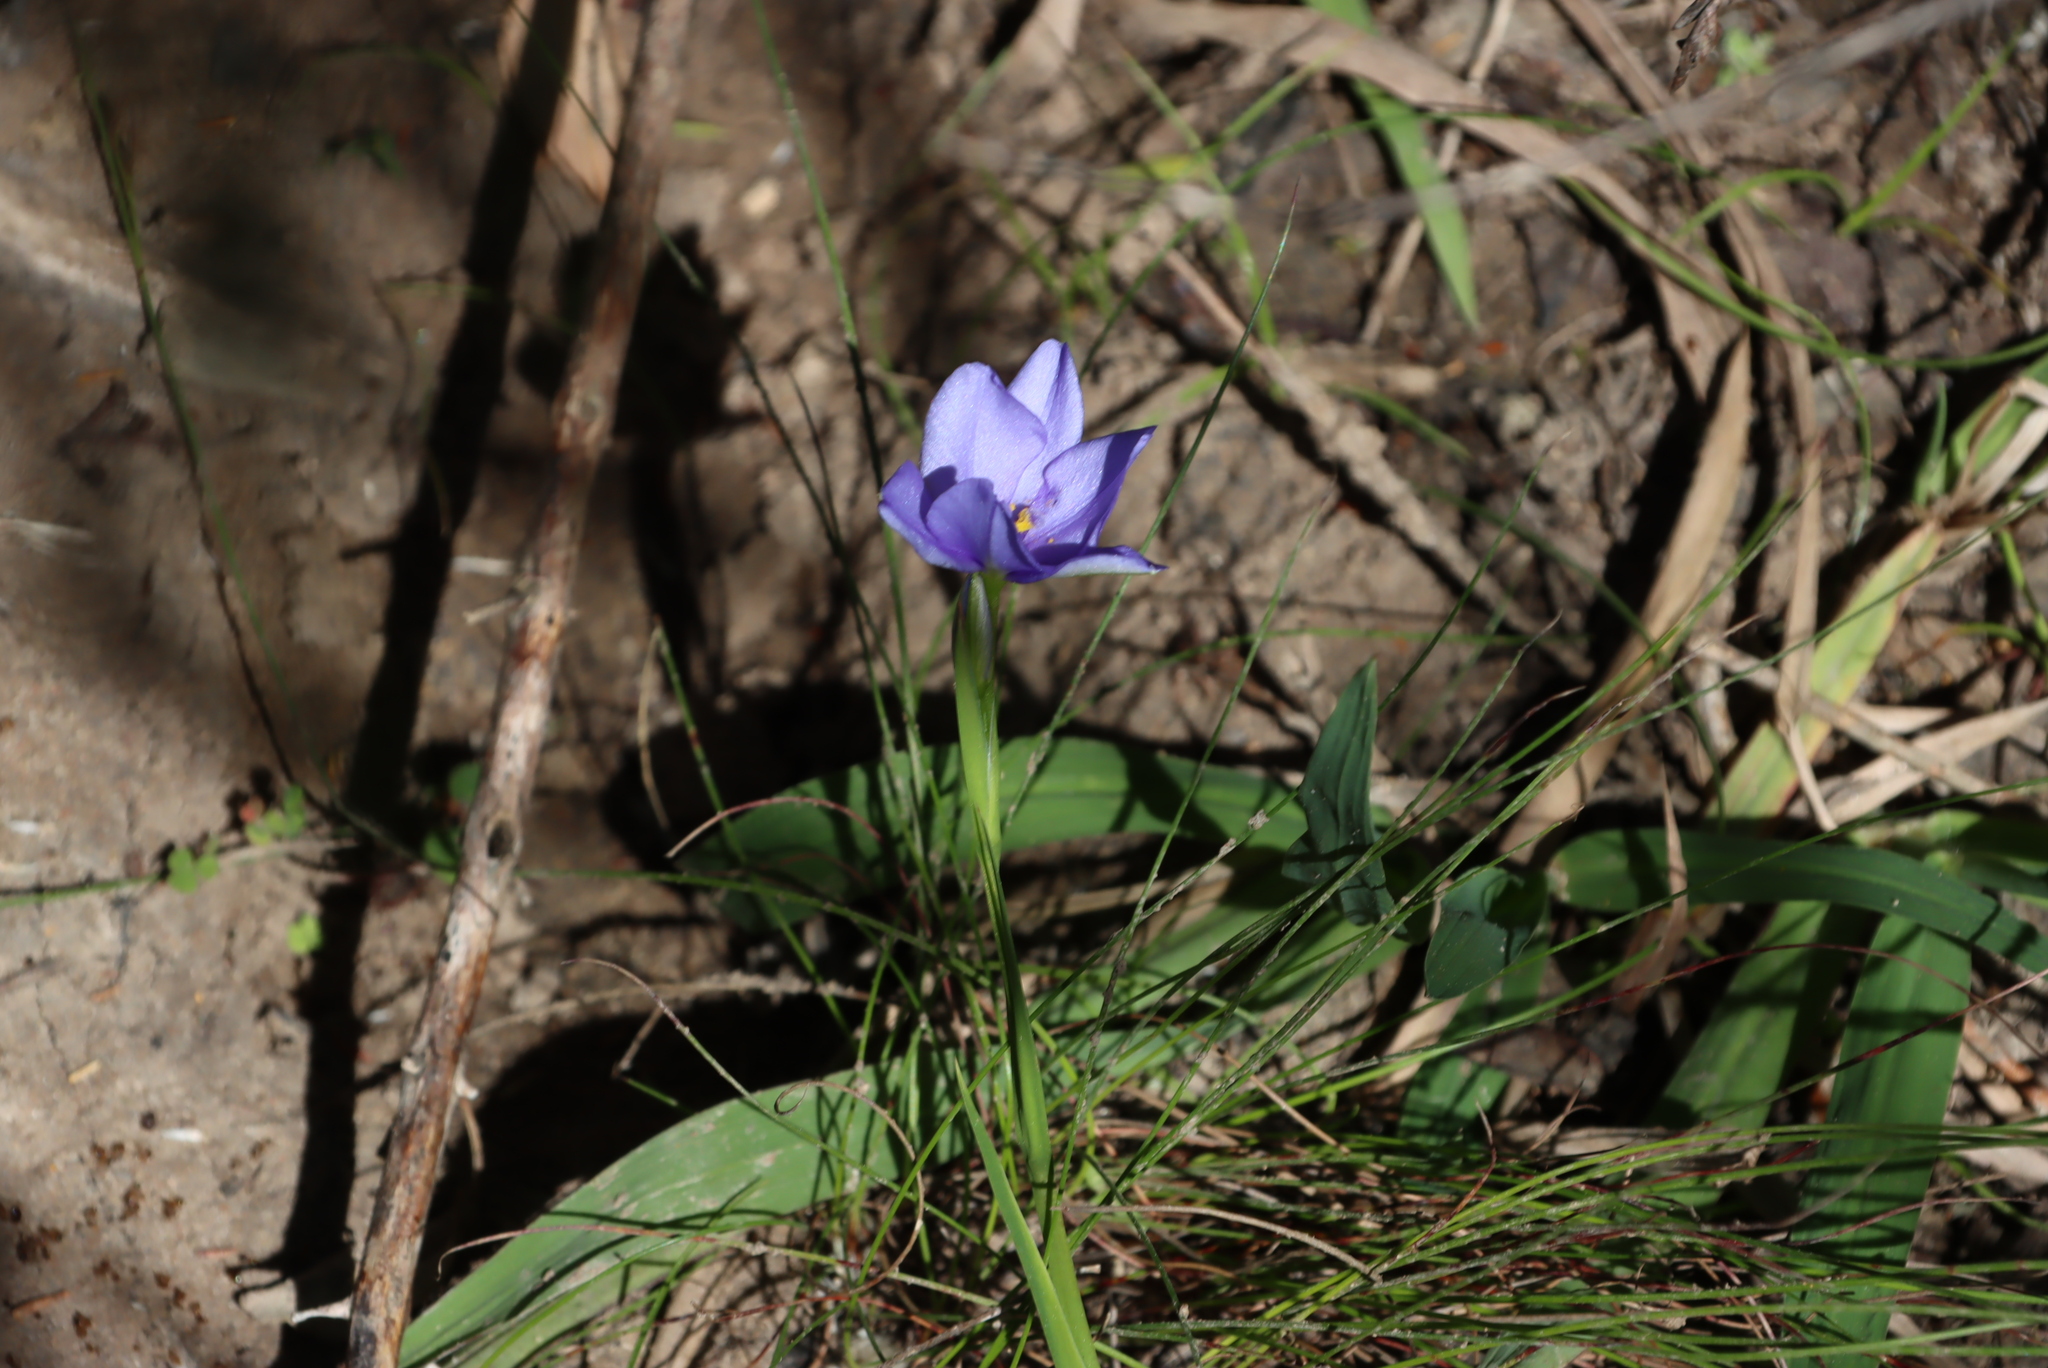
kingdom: Plantae
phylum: Tracheophyta
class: Liliopsida
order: Asparagales
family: Iridaceae
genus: Aristea
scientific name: Aristea pusilla
